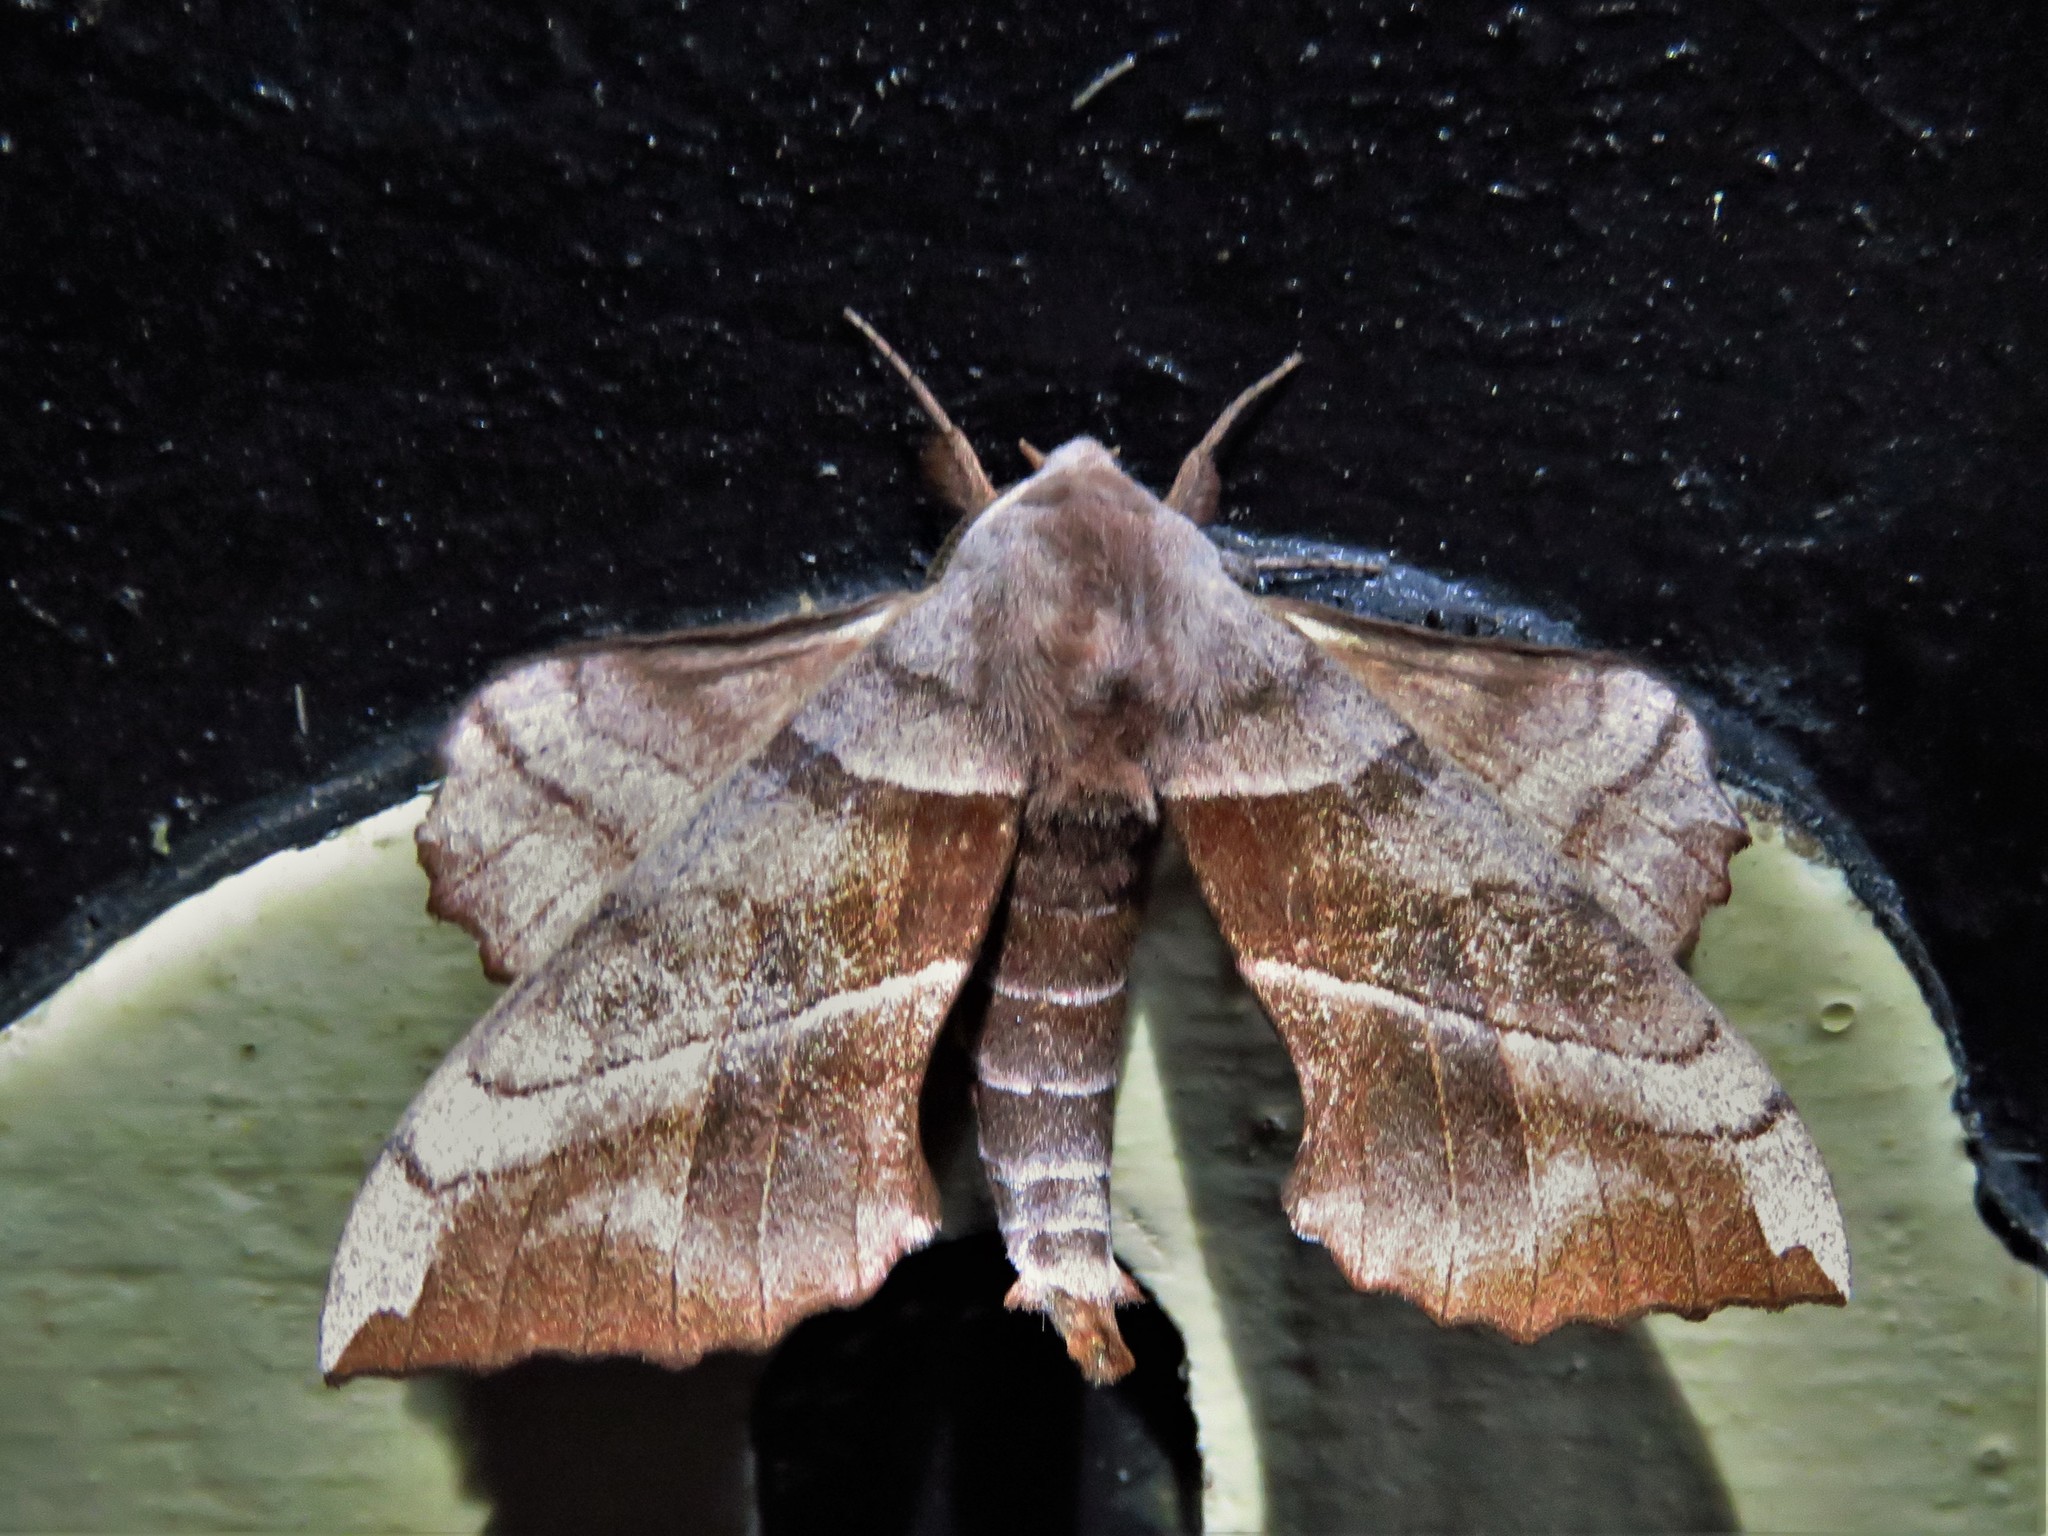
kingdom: Animalia
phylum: Arthropoda
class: Insecta
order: Lepidoptera
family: Sphingidae
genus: Amorpha
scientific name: Amorpha juglandis
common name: Walnut sphinx
